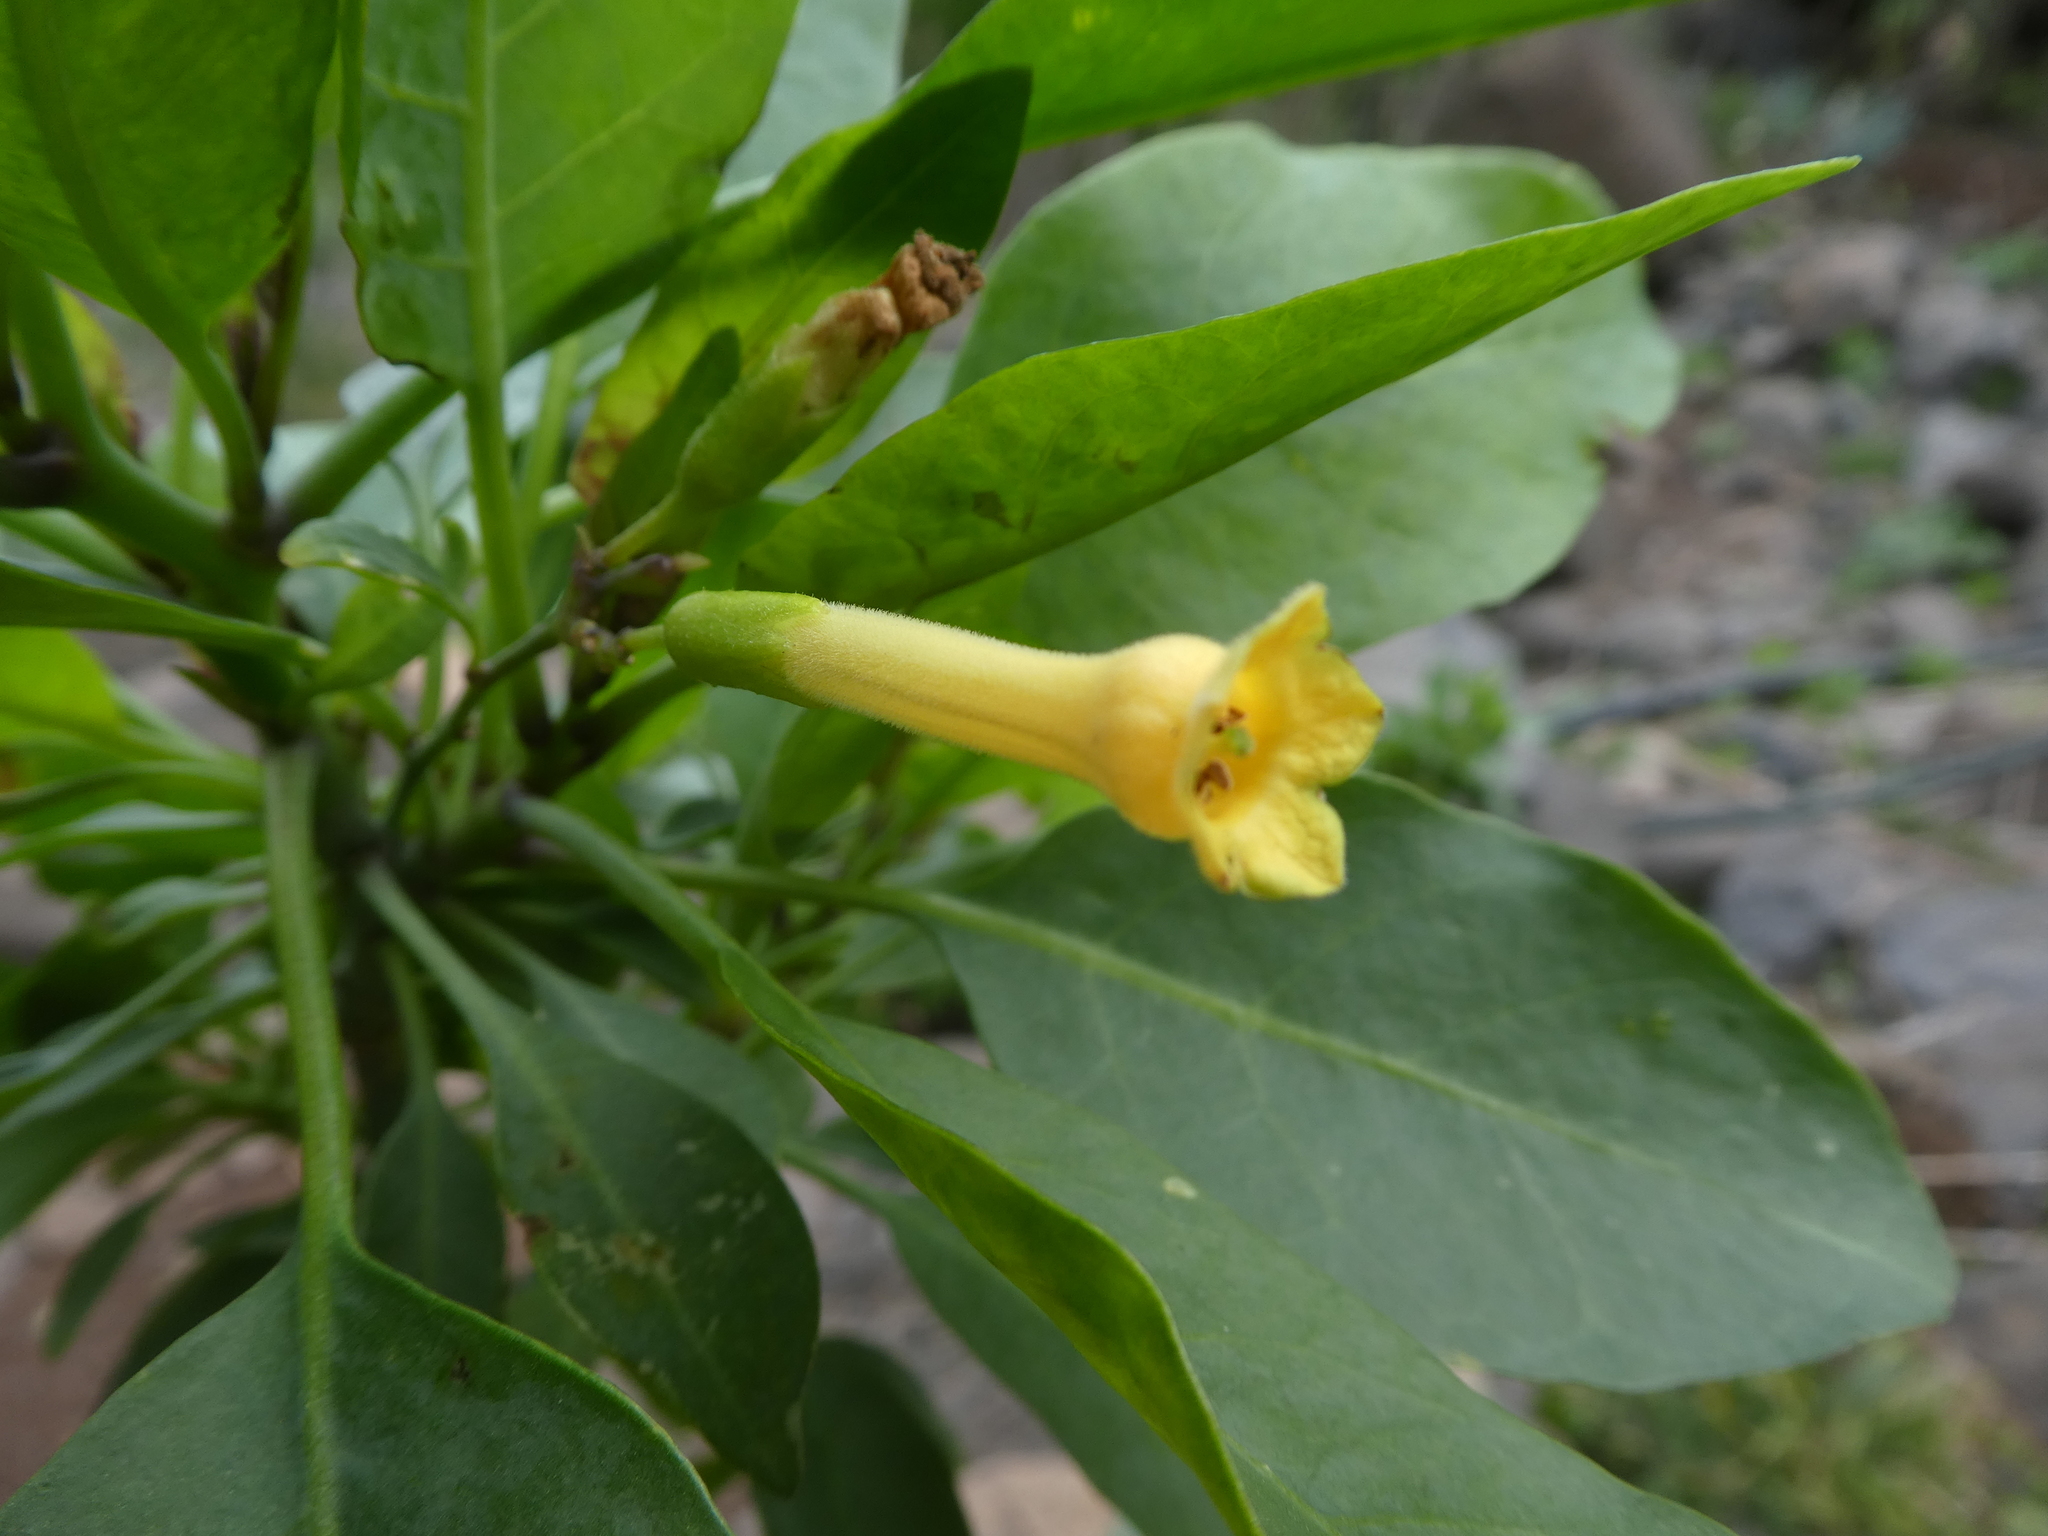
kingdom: Plantae
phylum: Tracheophyta
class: Magnoliopsida
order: Solanales
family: Solanaceae
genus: Nicotiana
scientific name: Nicotiana glauca
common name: Tree tobacco
